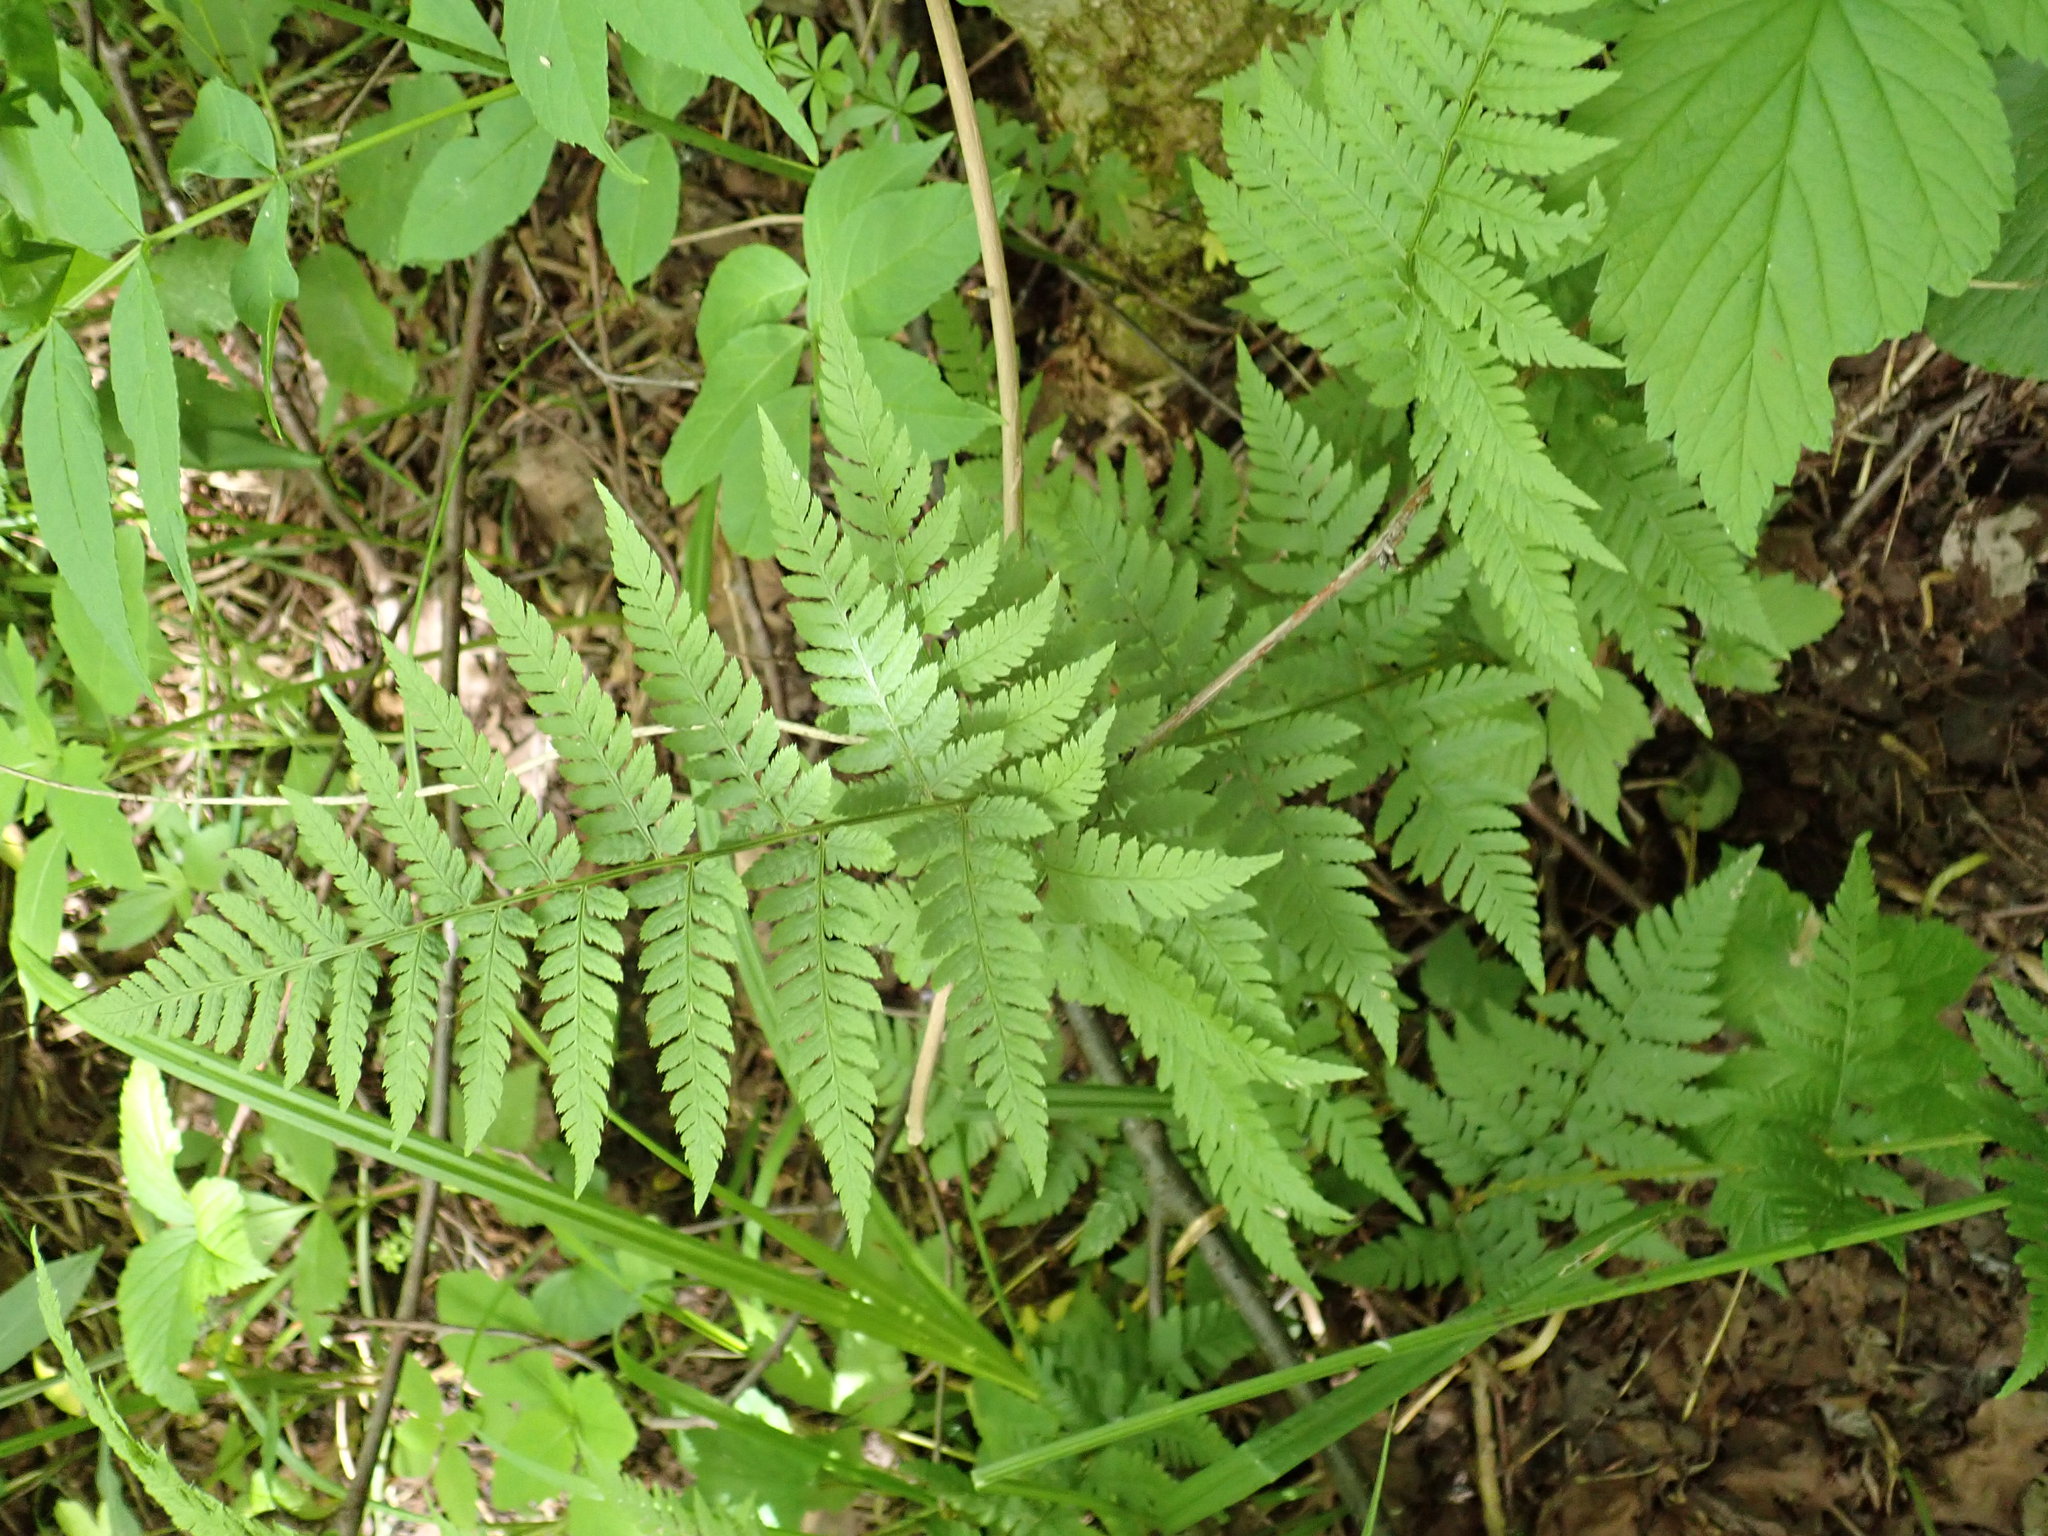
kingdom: Plantae
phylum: Tracheophyta
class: Polypodiopsida
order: Polypodiales
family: Dryopteridaceae
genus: Dryopteris
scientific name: Dryopteris carthusiana
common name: Narrow buckler-fern
